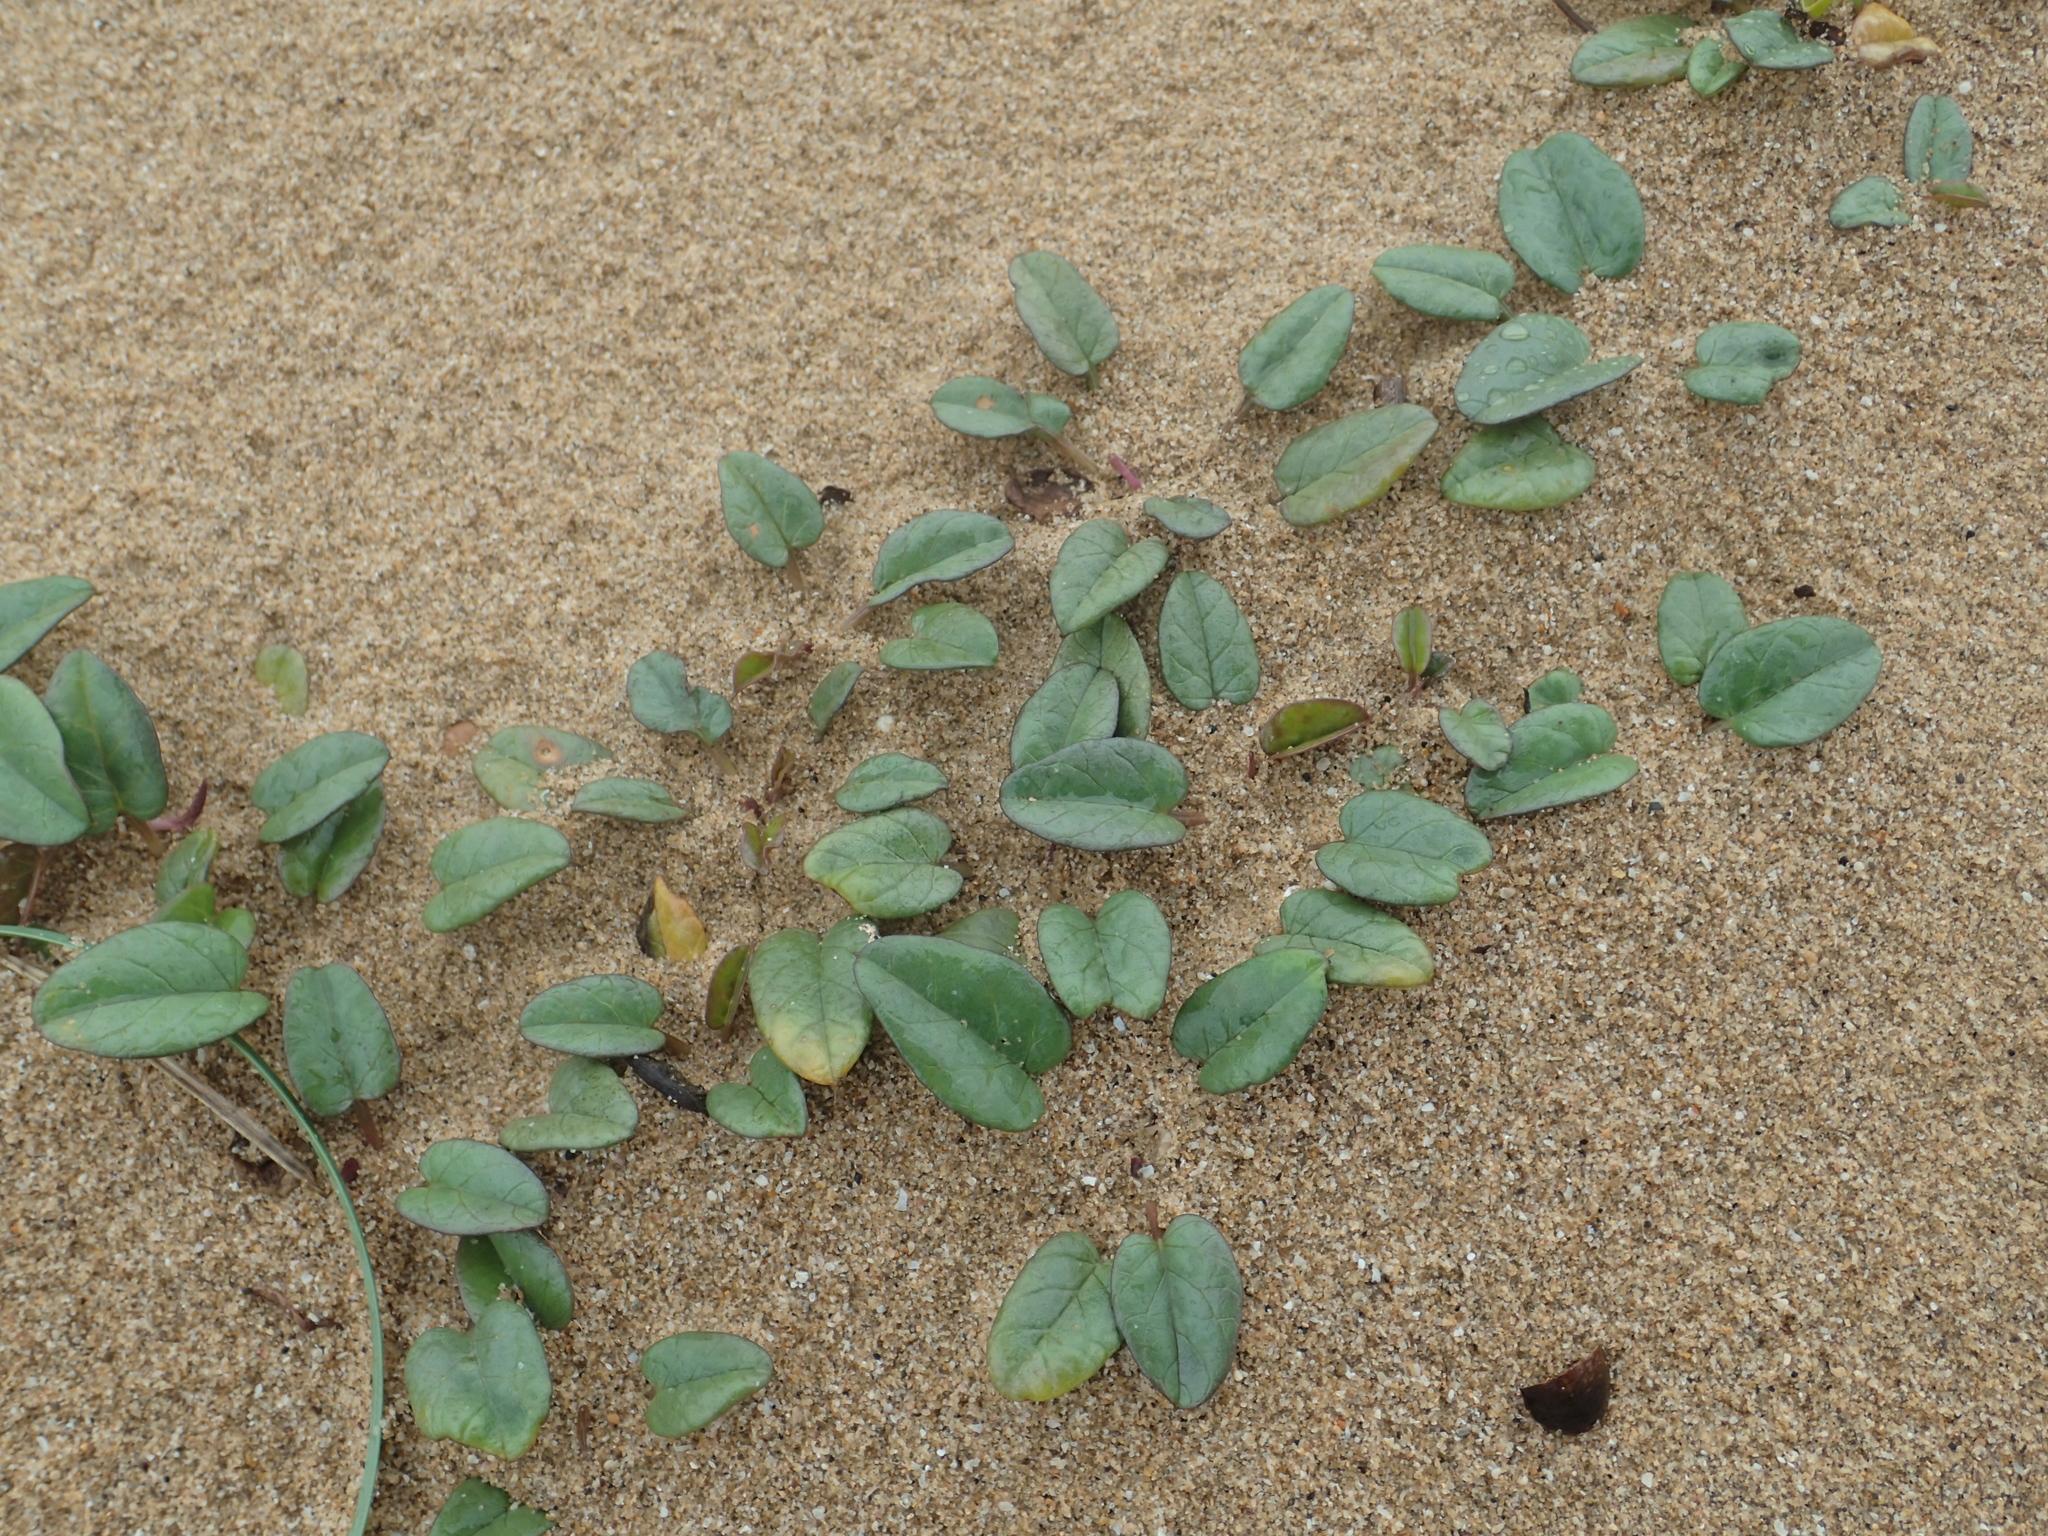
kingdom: Plantae
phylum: Tracheophyta
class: Magnoliopsida
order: Solanales
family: Convolvulaceae
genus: Ipomoea
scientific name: Ipomoea imperati
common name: Fiddle-leaf morning-glory
